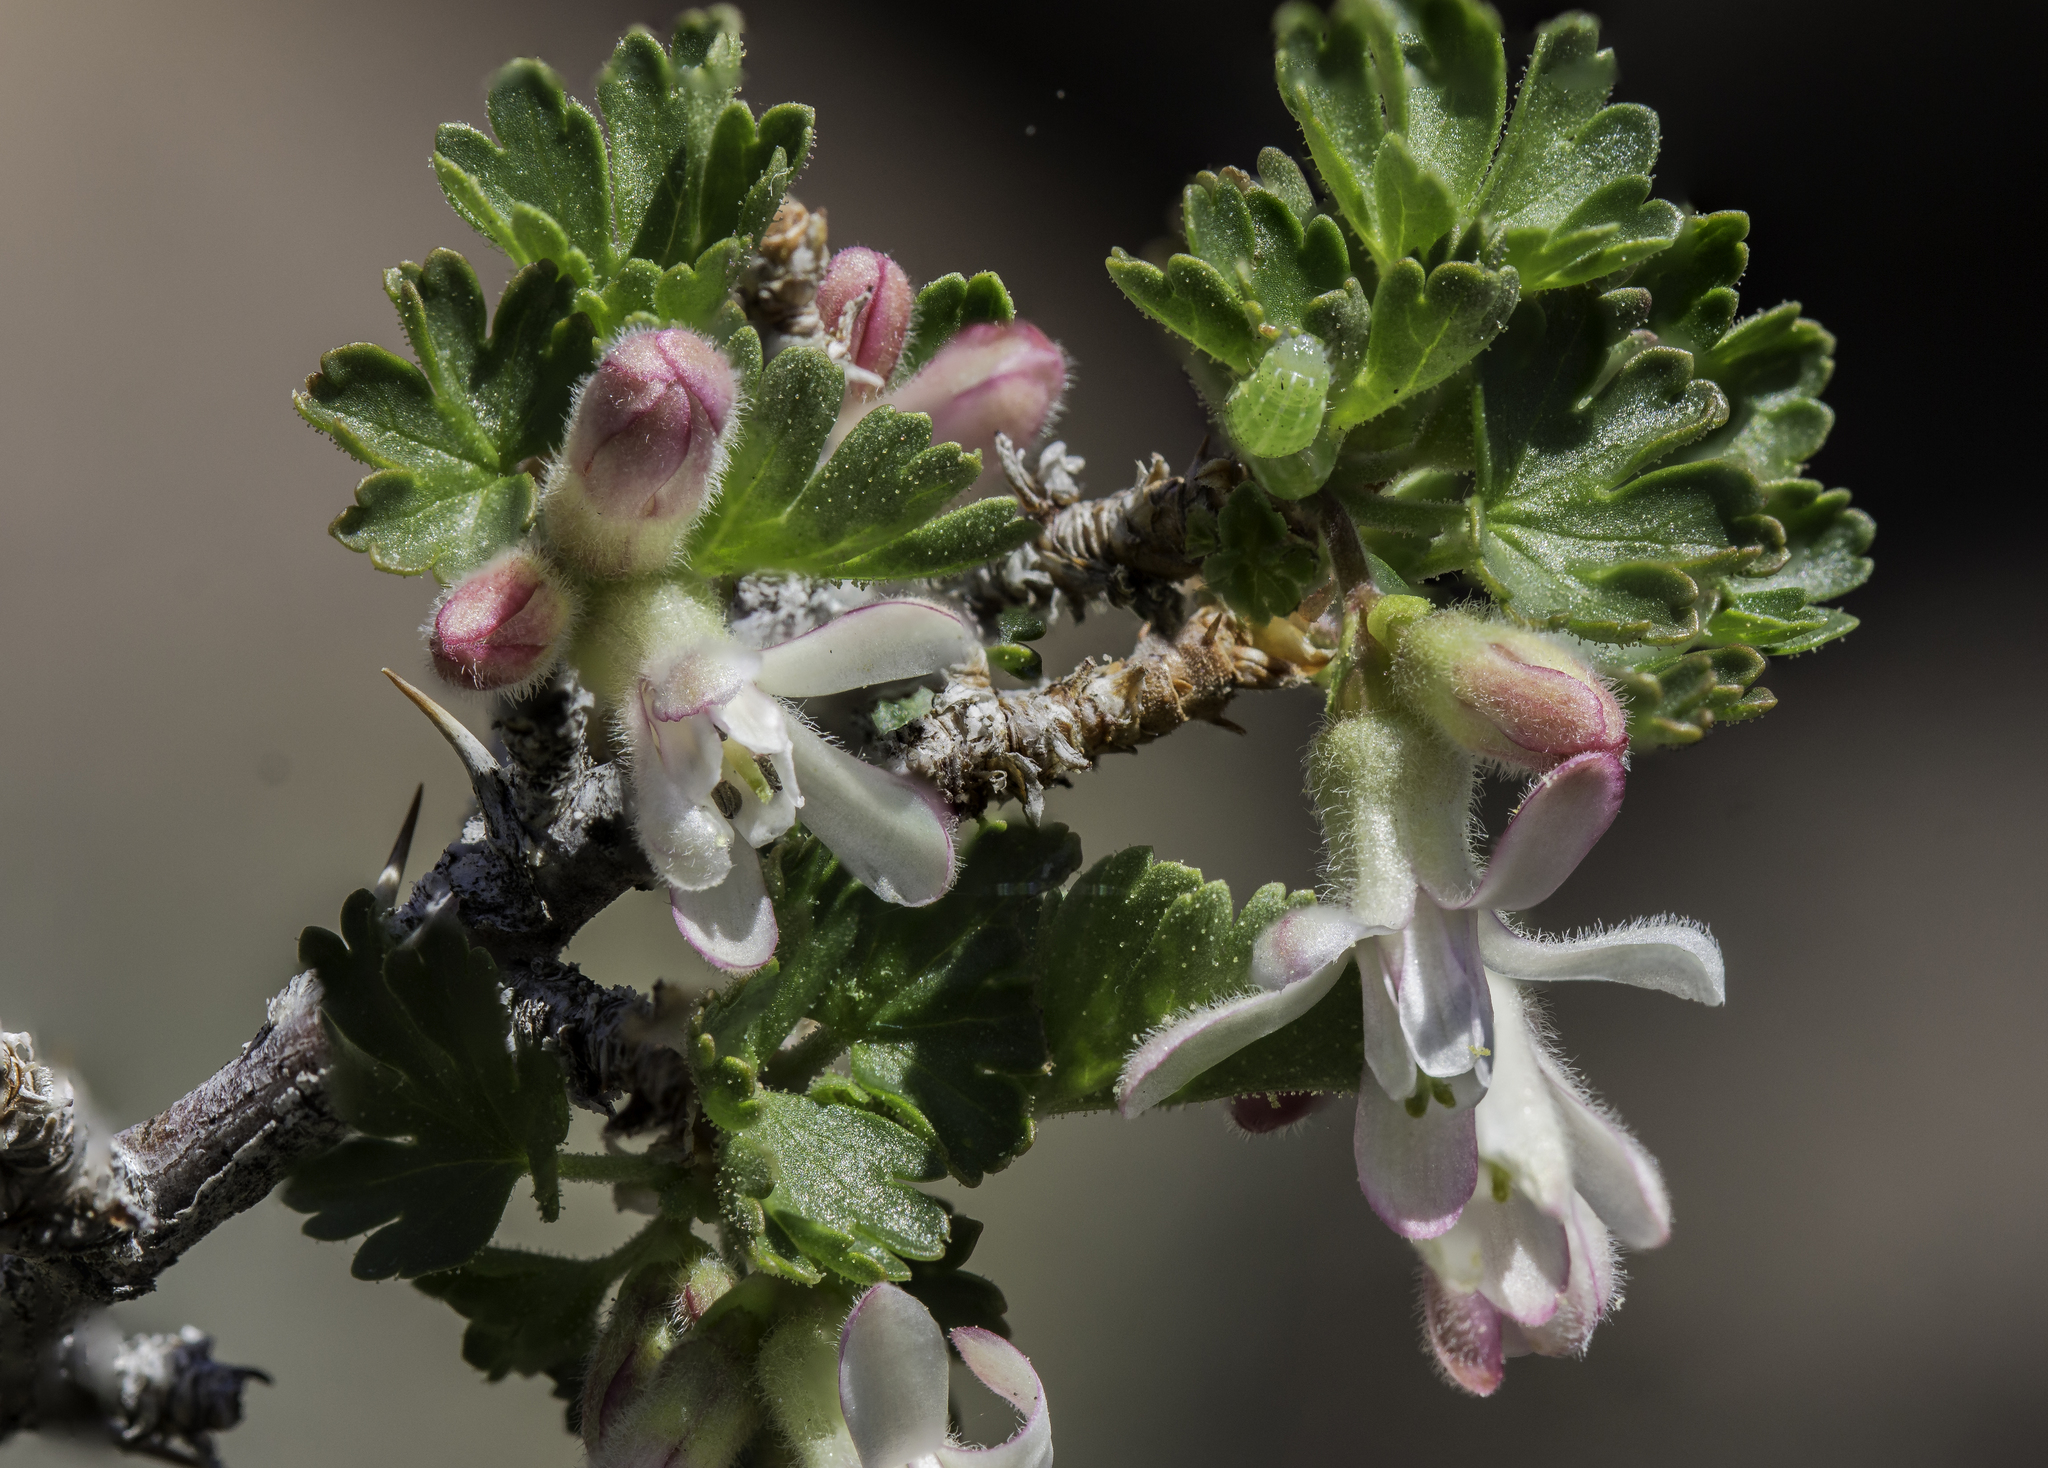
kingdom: Plantae
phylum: Tracheophyta
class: Magnoliopsida
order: Saxifragales
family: Grossulariaceae
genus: Ribes
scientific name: Ribes leptanthum
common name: Trumpet gooseberry
